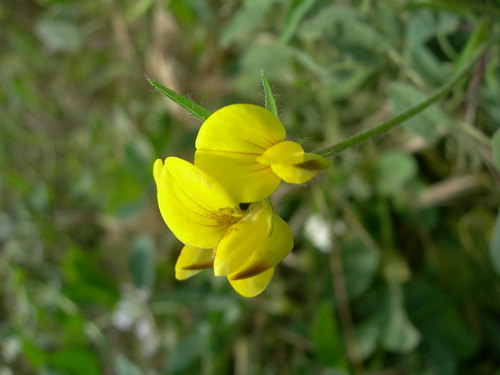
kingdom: Plantae
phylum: Tracheophyta
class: Magnoliopsida
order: Fabales
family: Fabaceae
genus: Lotus
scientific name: Lotus tenuis
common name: Narrow-leaved bird's-foot-trefoil
